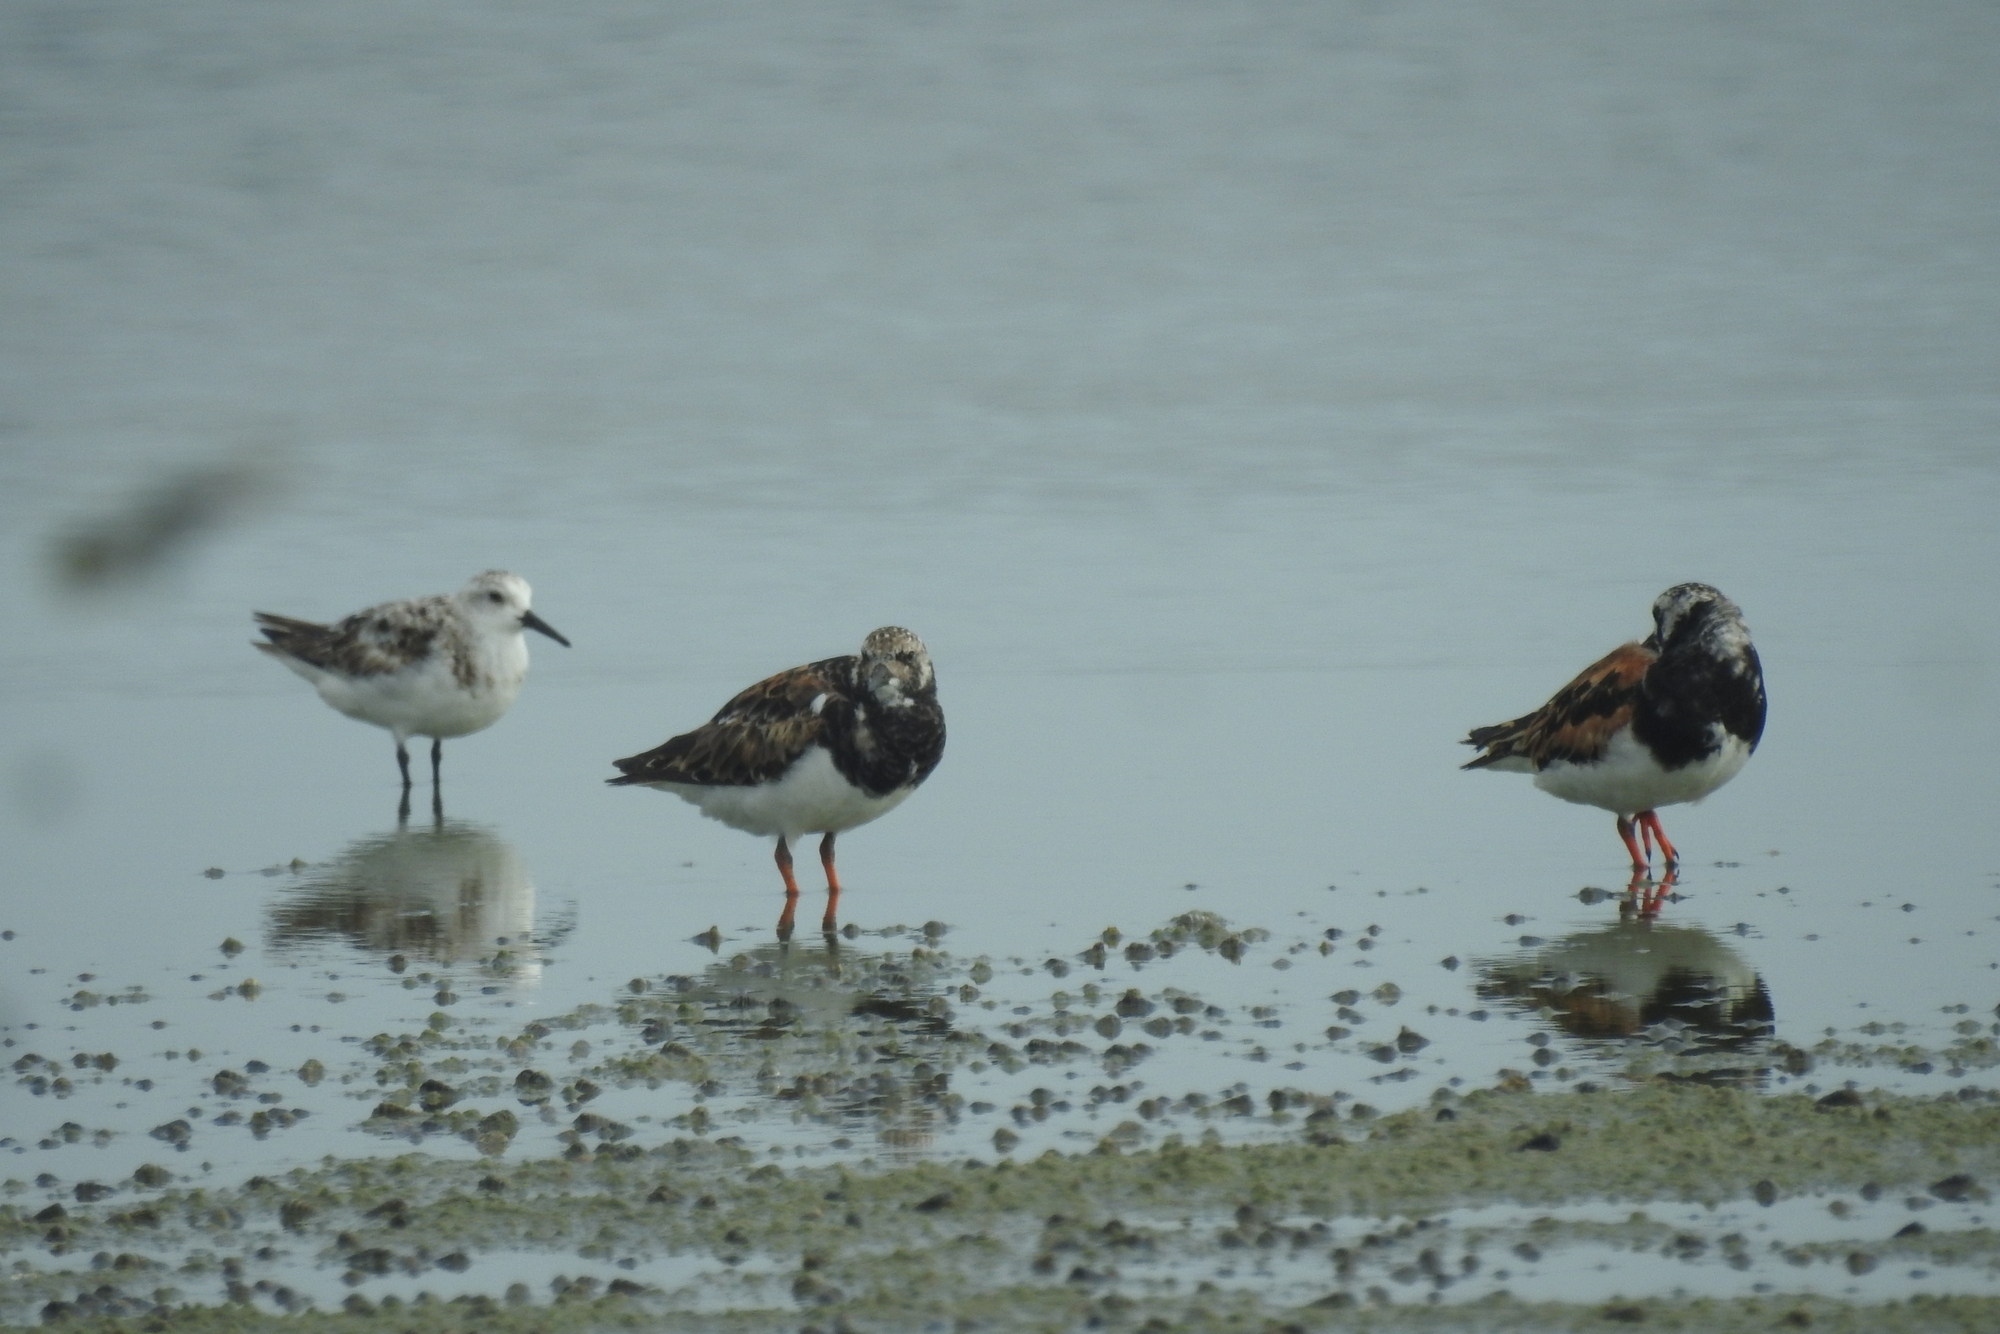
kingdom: Animalia
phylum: Chordata
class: Aves
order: Charadriiformes
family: Scolopacidae
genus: Arenaria
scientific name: Arenaria interpres
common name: Ruddy turnstone
